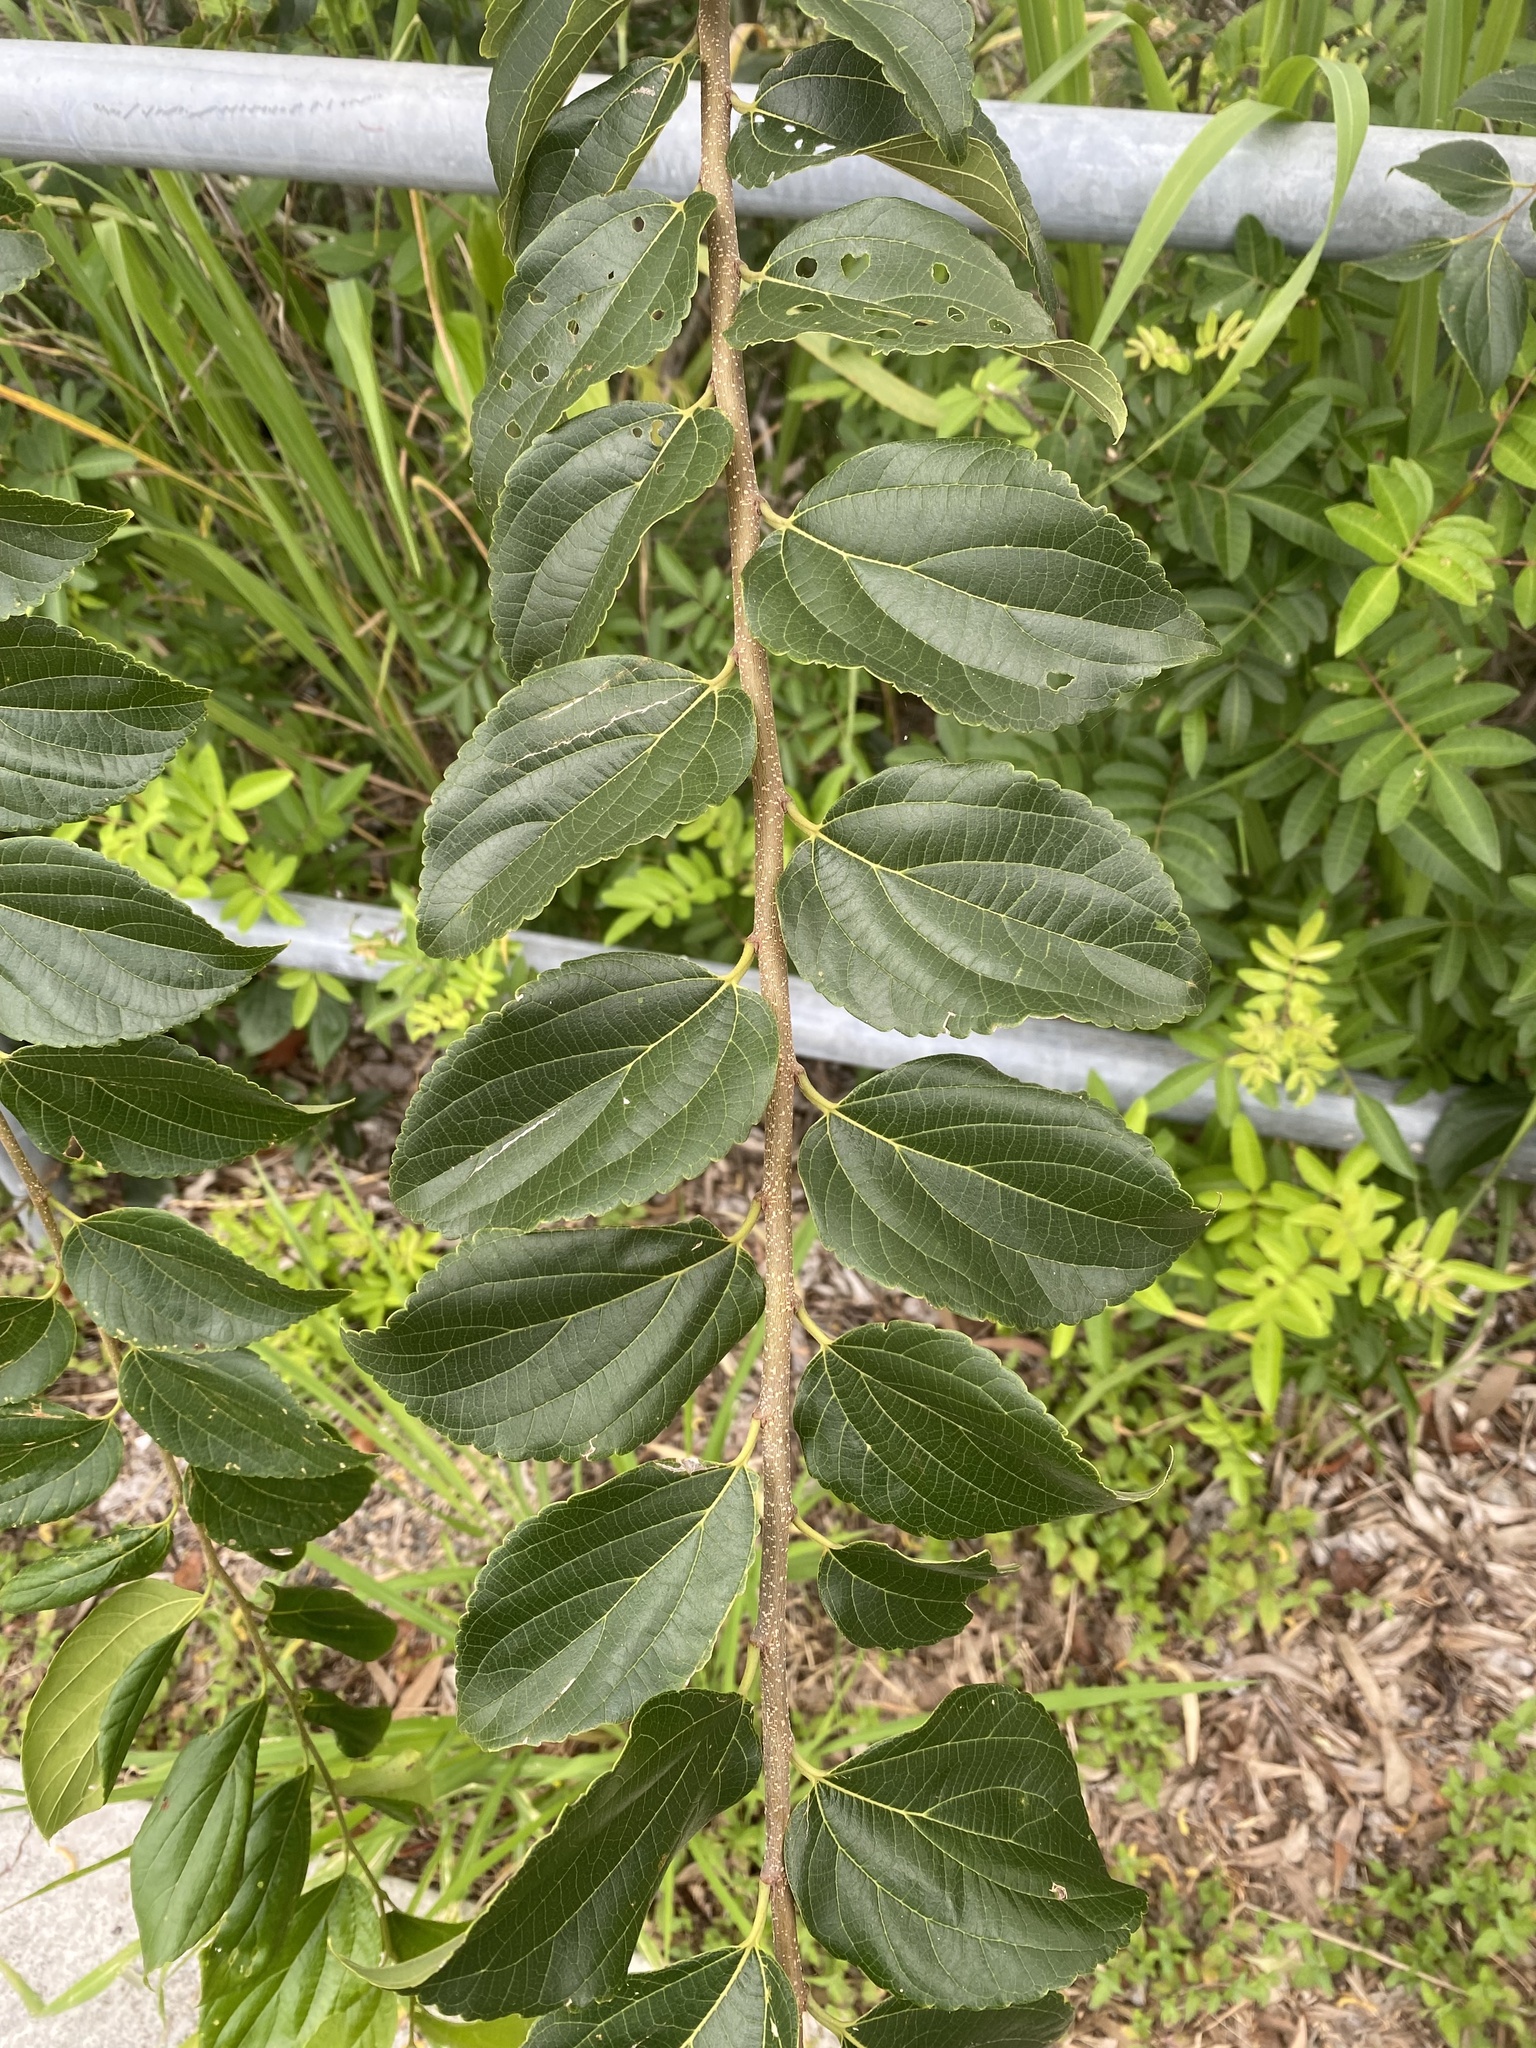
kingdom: Plantae
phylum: Tracheophyta
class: Magnoliopsida
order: Rosales
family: Cannabaceae
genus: Celtis
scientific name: Celtis sinensis
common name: Chinese hackberry
